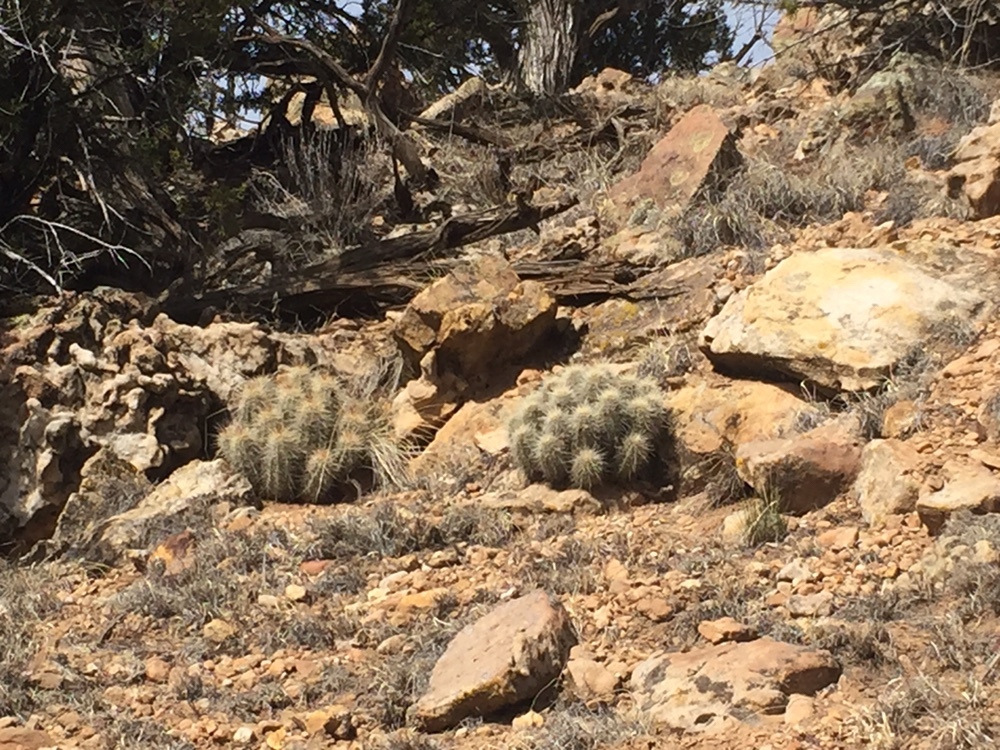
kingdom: Plantae
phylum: Tracheophyta
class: Magnoliopsida
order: Caryophyllales
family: Cactaceae
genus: Echinocereus
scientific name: Echinocereus coccineus
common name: Scarlet hedgehog cactus
